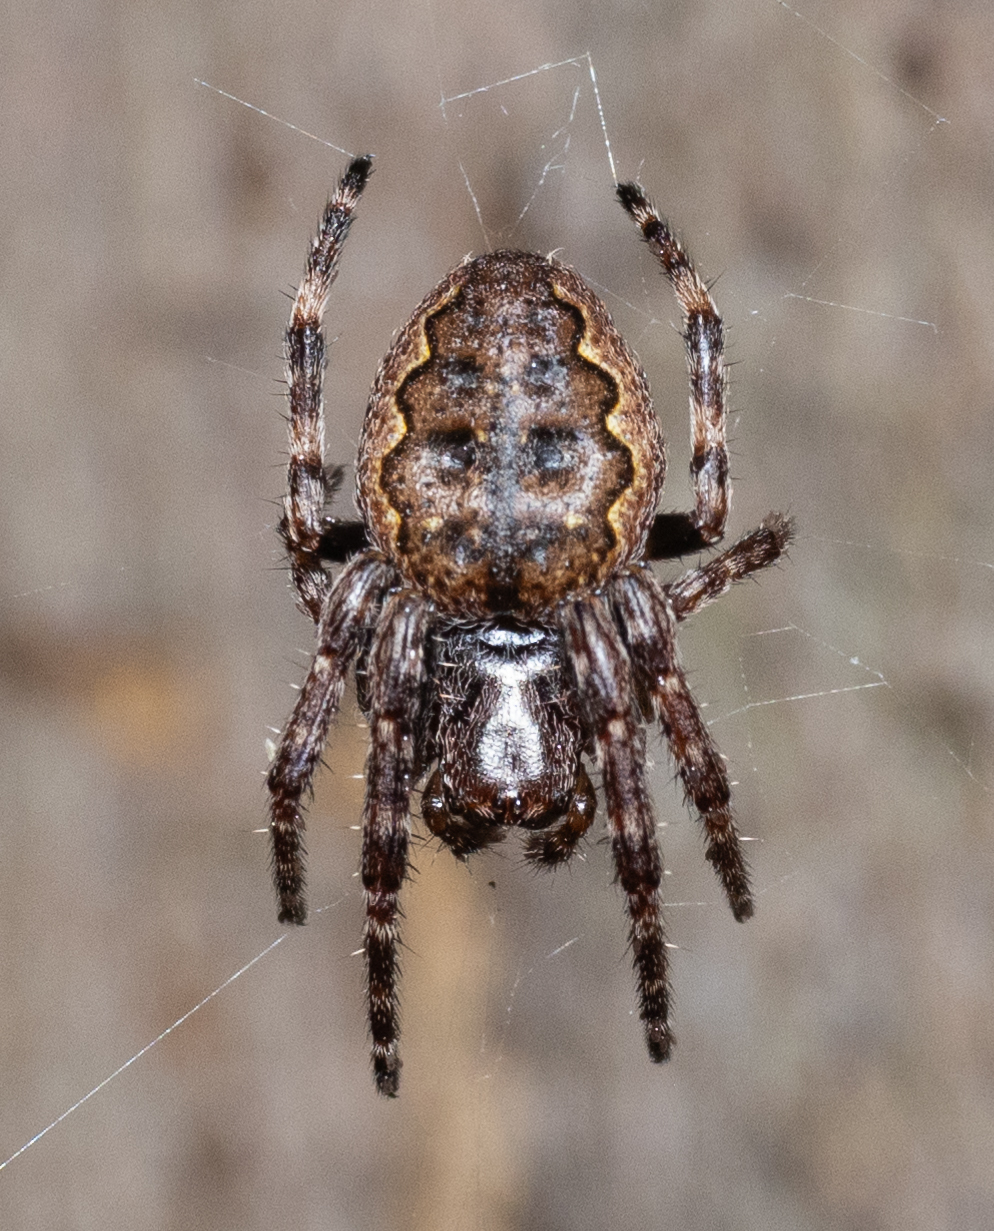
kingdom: Animalia
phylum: Arthropoda
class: Arachnida
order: Araneae
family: Araneidae
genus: Nuctenea
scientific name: Nuctenea umbratica
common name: Toad spider
